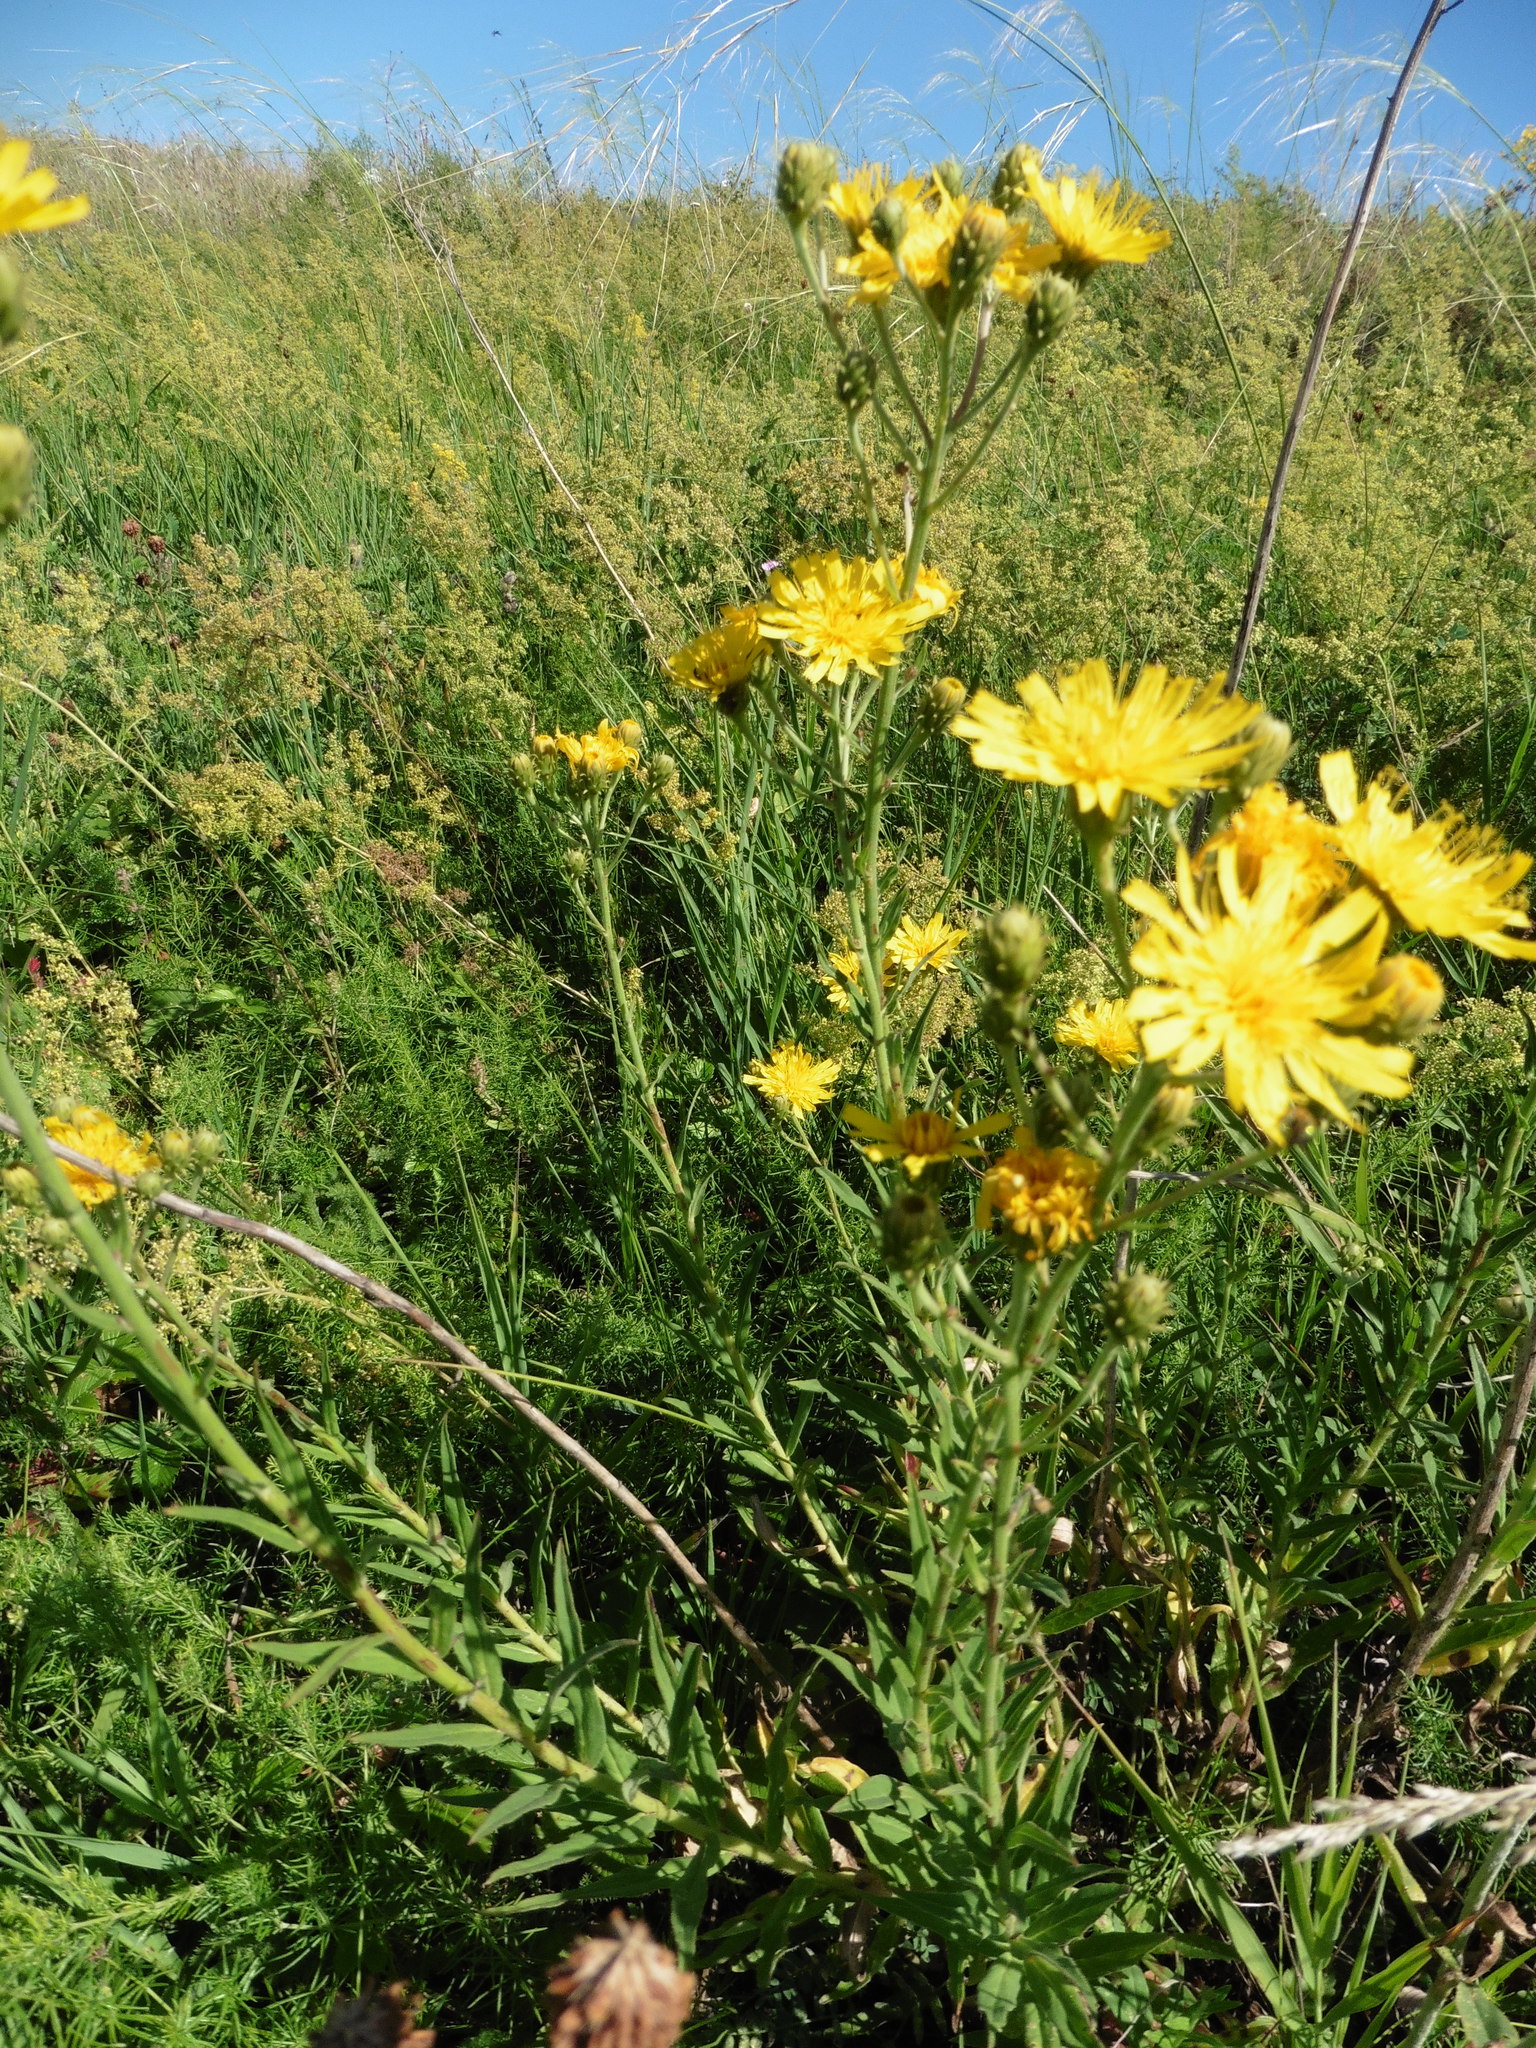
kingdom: Plantae
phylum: Tracheophyta
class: Magnoliopsida
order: Asterales
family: Asteraceae
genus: Hieracium
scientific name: Hieracium umbellatum
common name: Northern hawkweed
